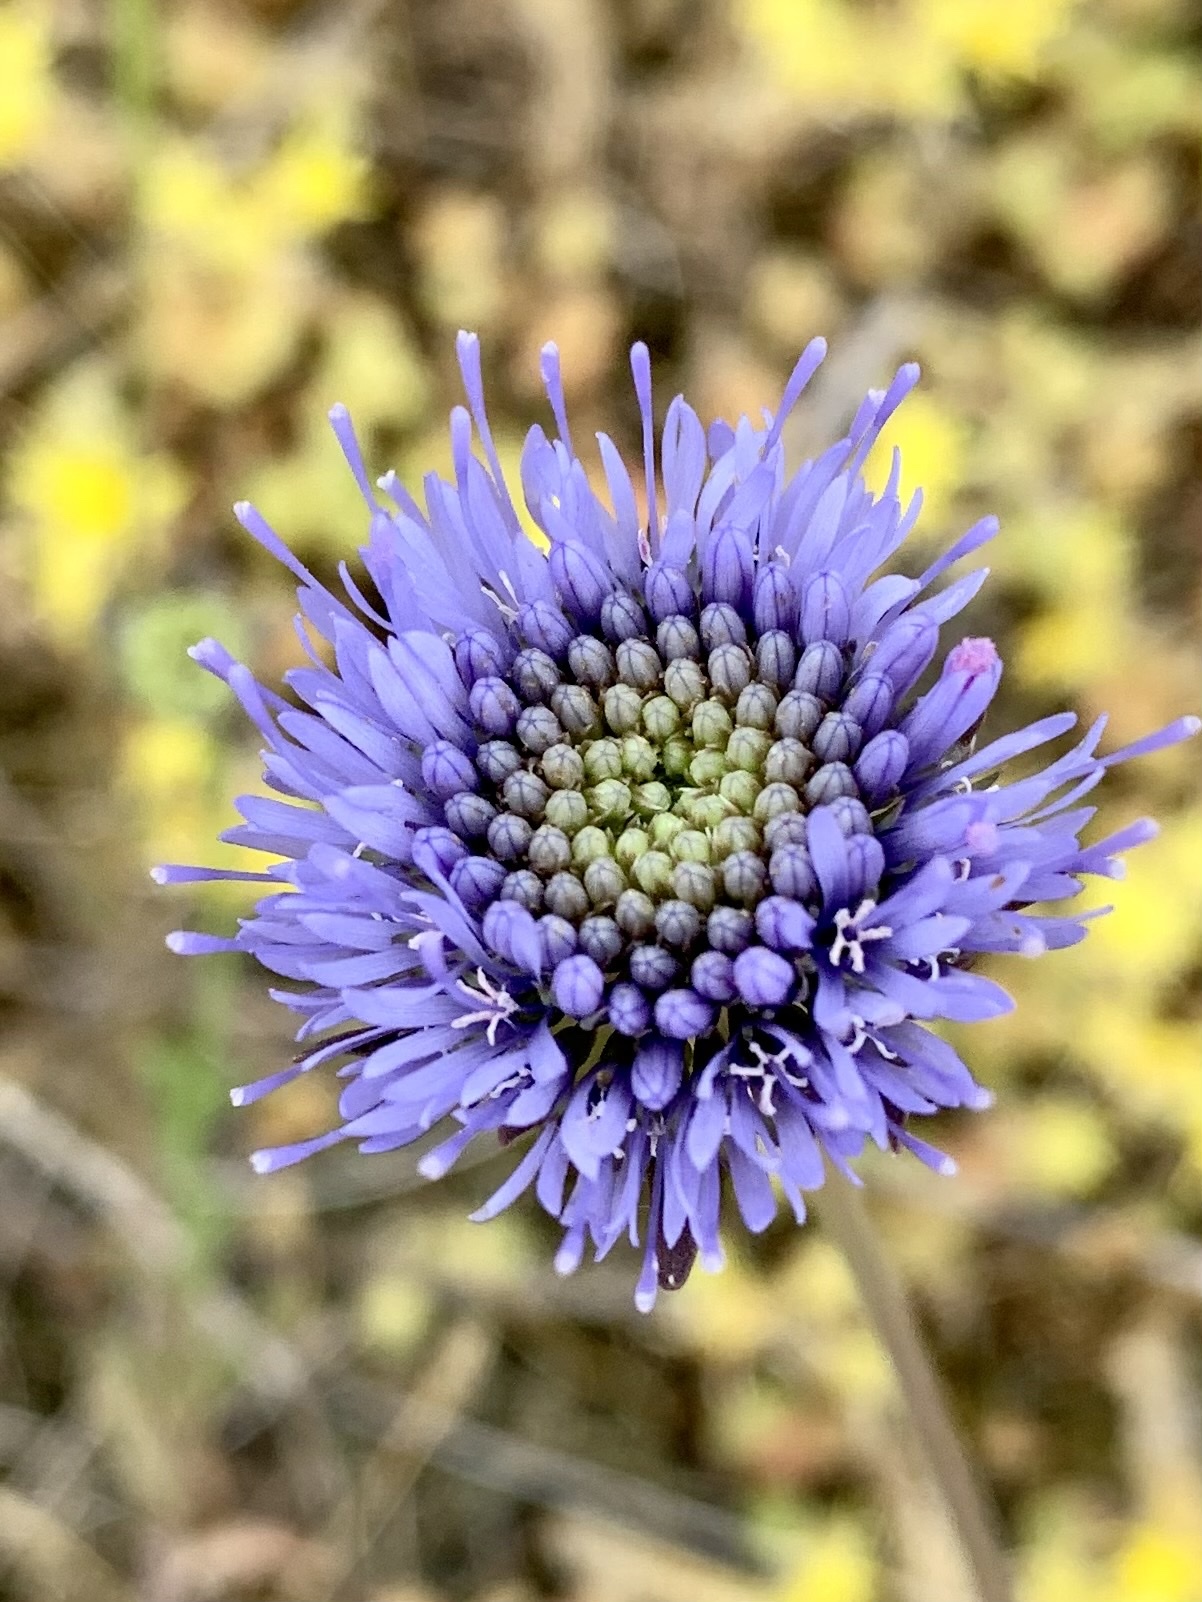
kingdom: Plantae
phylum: Tracheophyta
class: Magnoliopsida
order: Asterales
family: Campanulaceae
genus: Jasione
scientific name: Jasione montana
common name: Sheep's-bit
